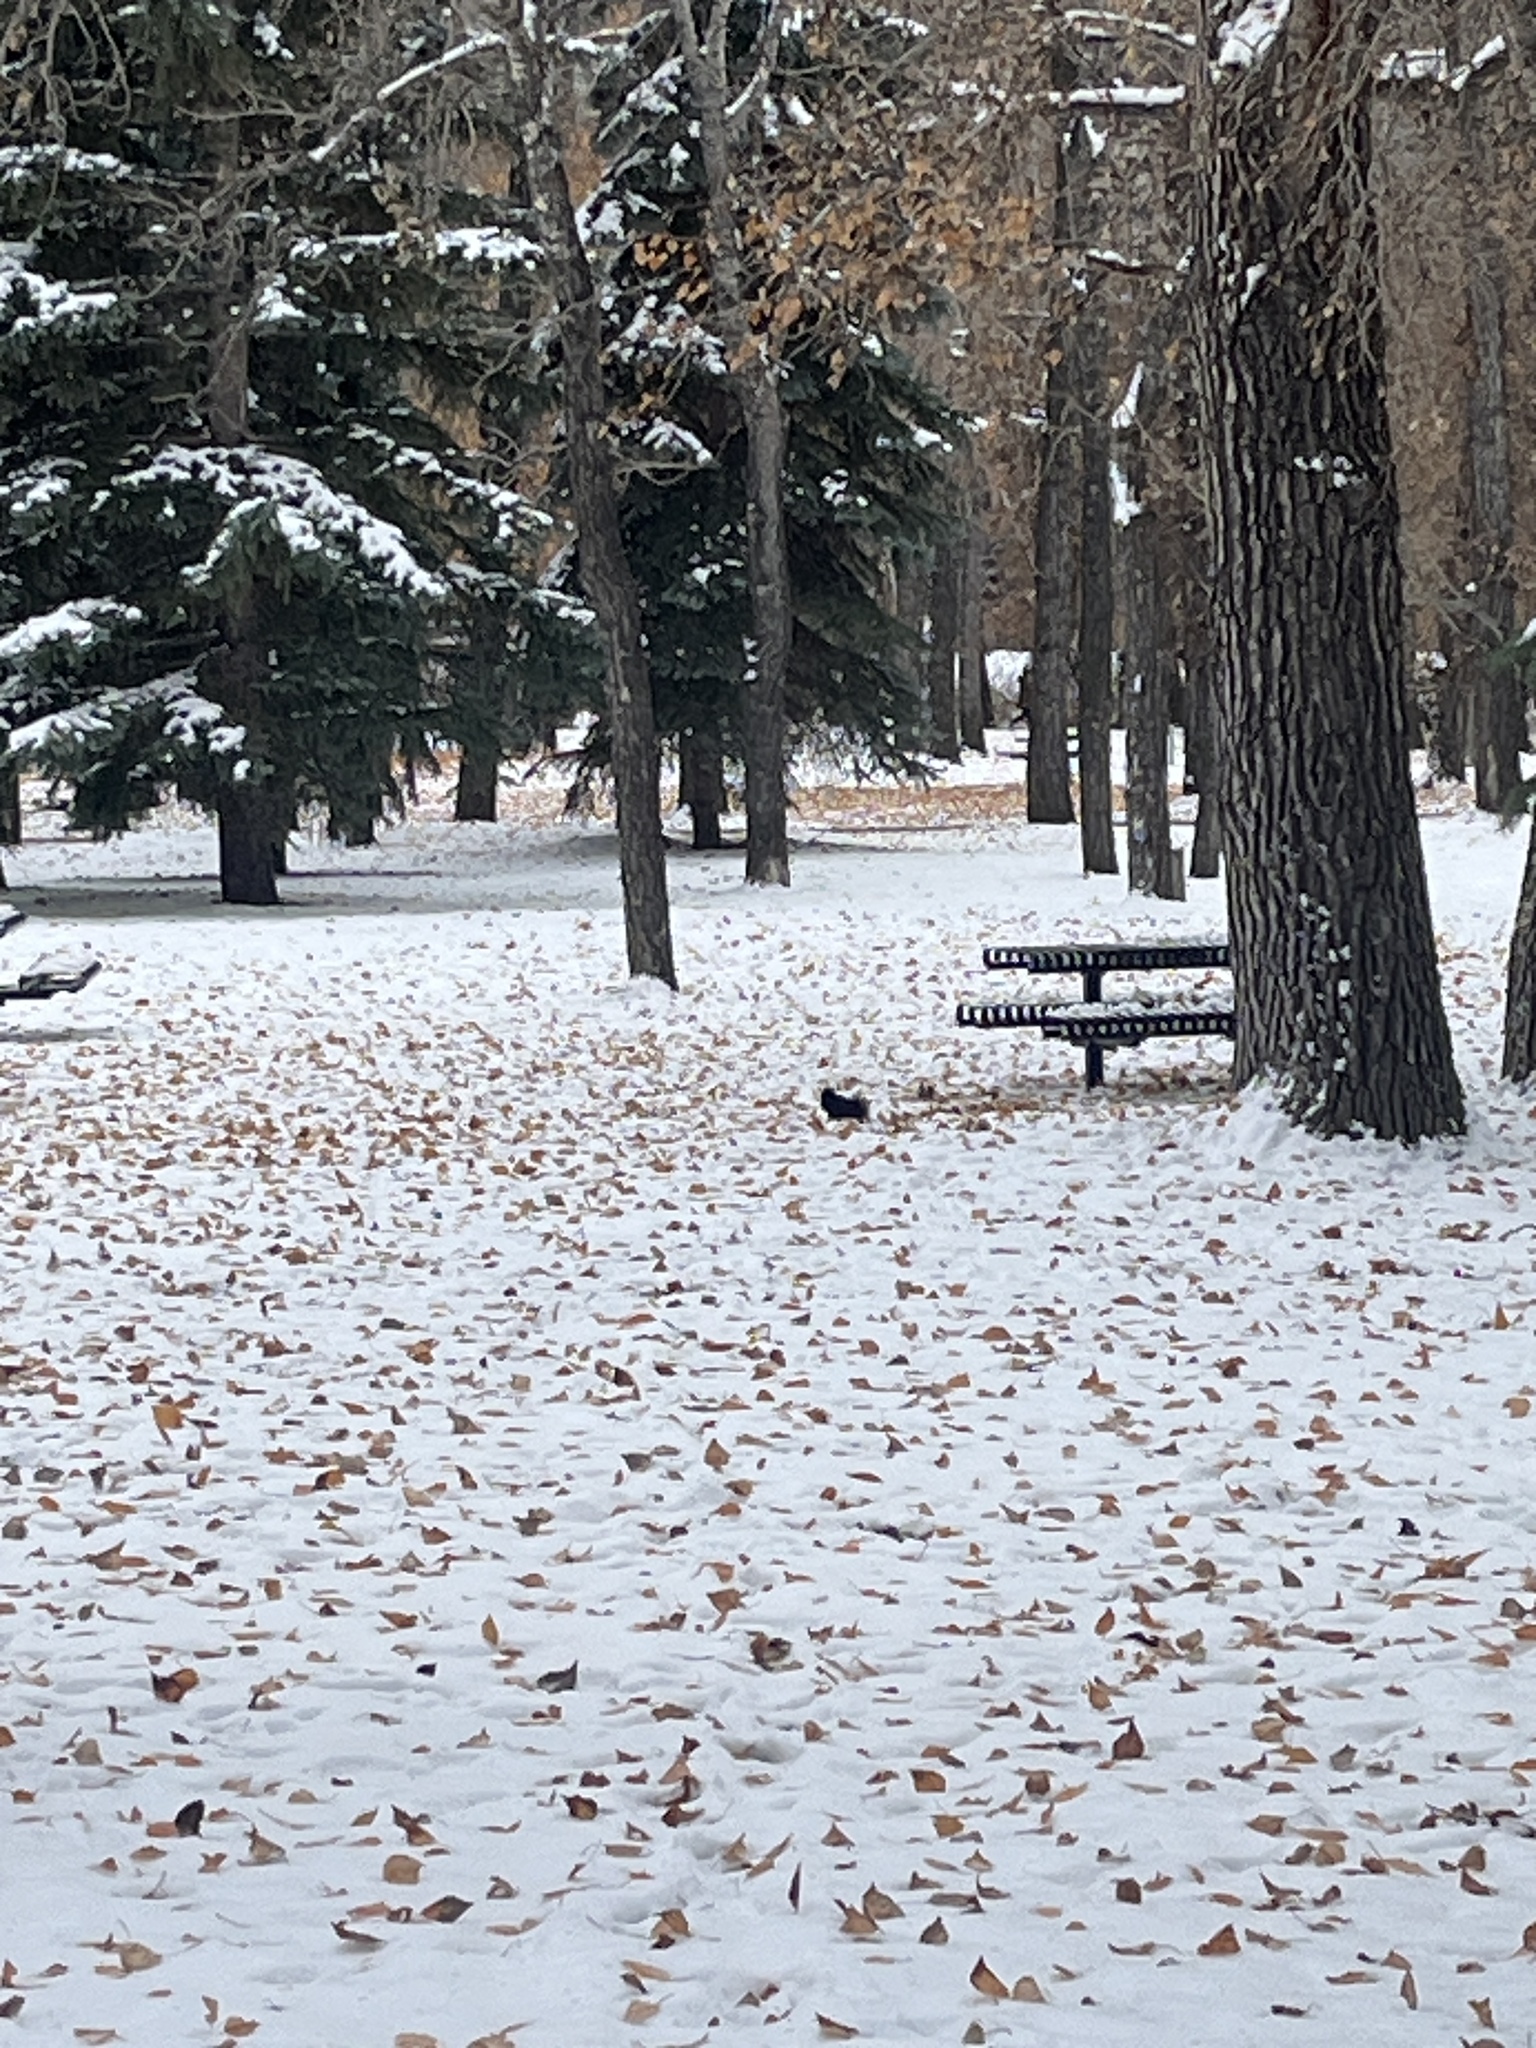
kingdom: Animalia
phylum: Chordata
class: Mammalia
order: Rodentia
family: Sciuridae
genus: Sciurus
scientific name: Sciurus carolinensis
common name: Eastern gray squirrel
